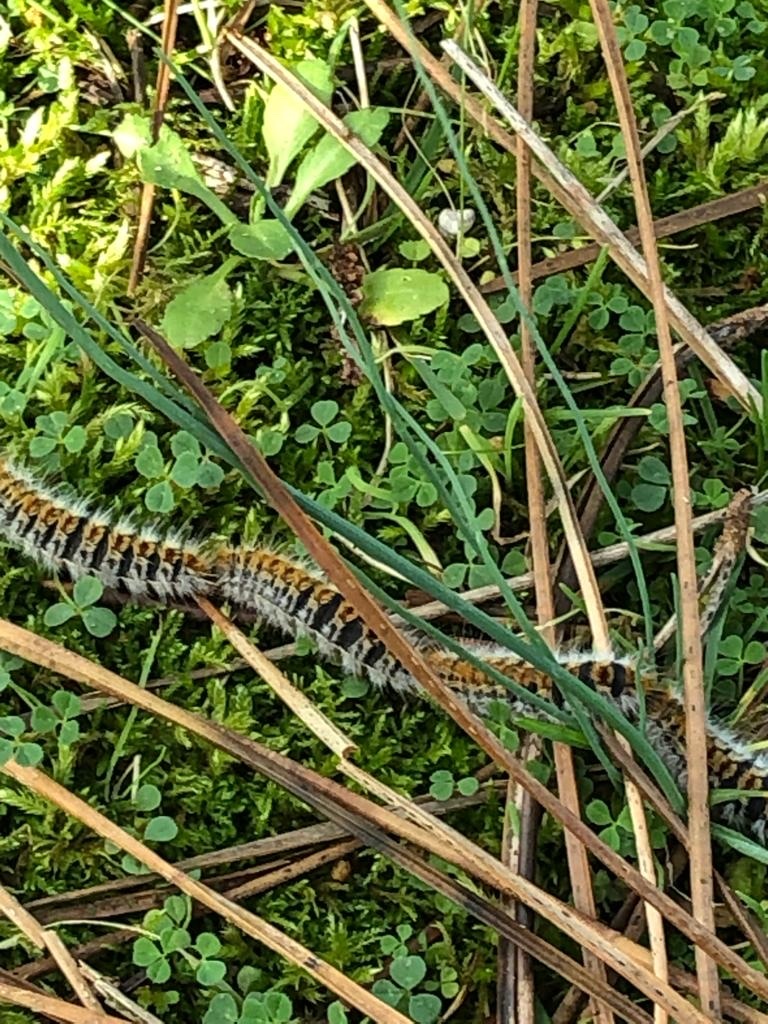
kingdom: Animalia
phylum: Arthropoda
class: Insecta
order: Lepidoptera
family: Notodontidae
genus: Thaumetopoea
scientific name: Thaumetopoea pityocampa
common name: Pine processionary
